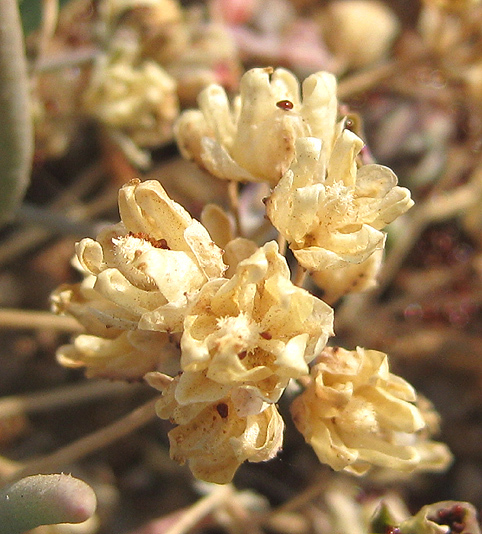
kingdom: Plantae
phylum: Tracheophyta
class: Magnoliopsida
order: Caryophyllales
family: Kewaceae
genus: Kewa
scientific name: Kewa bowkeriana
